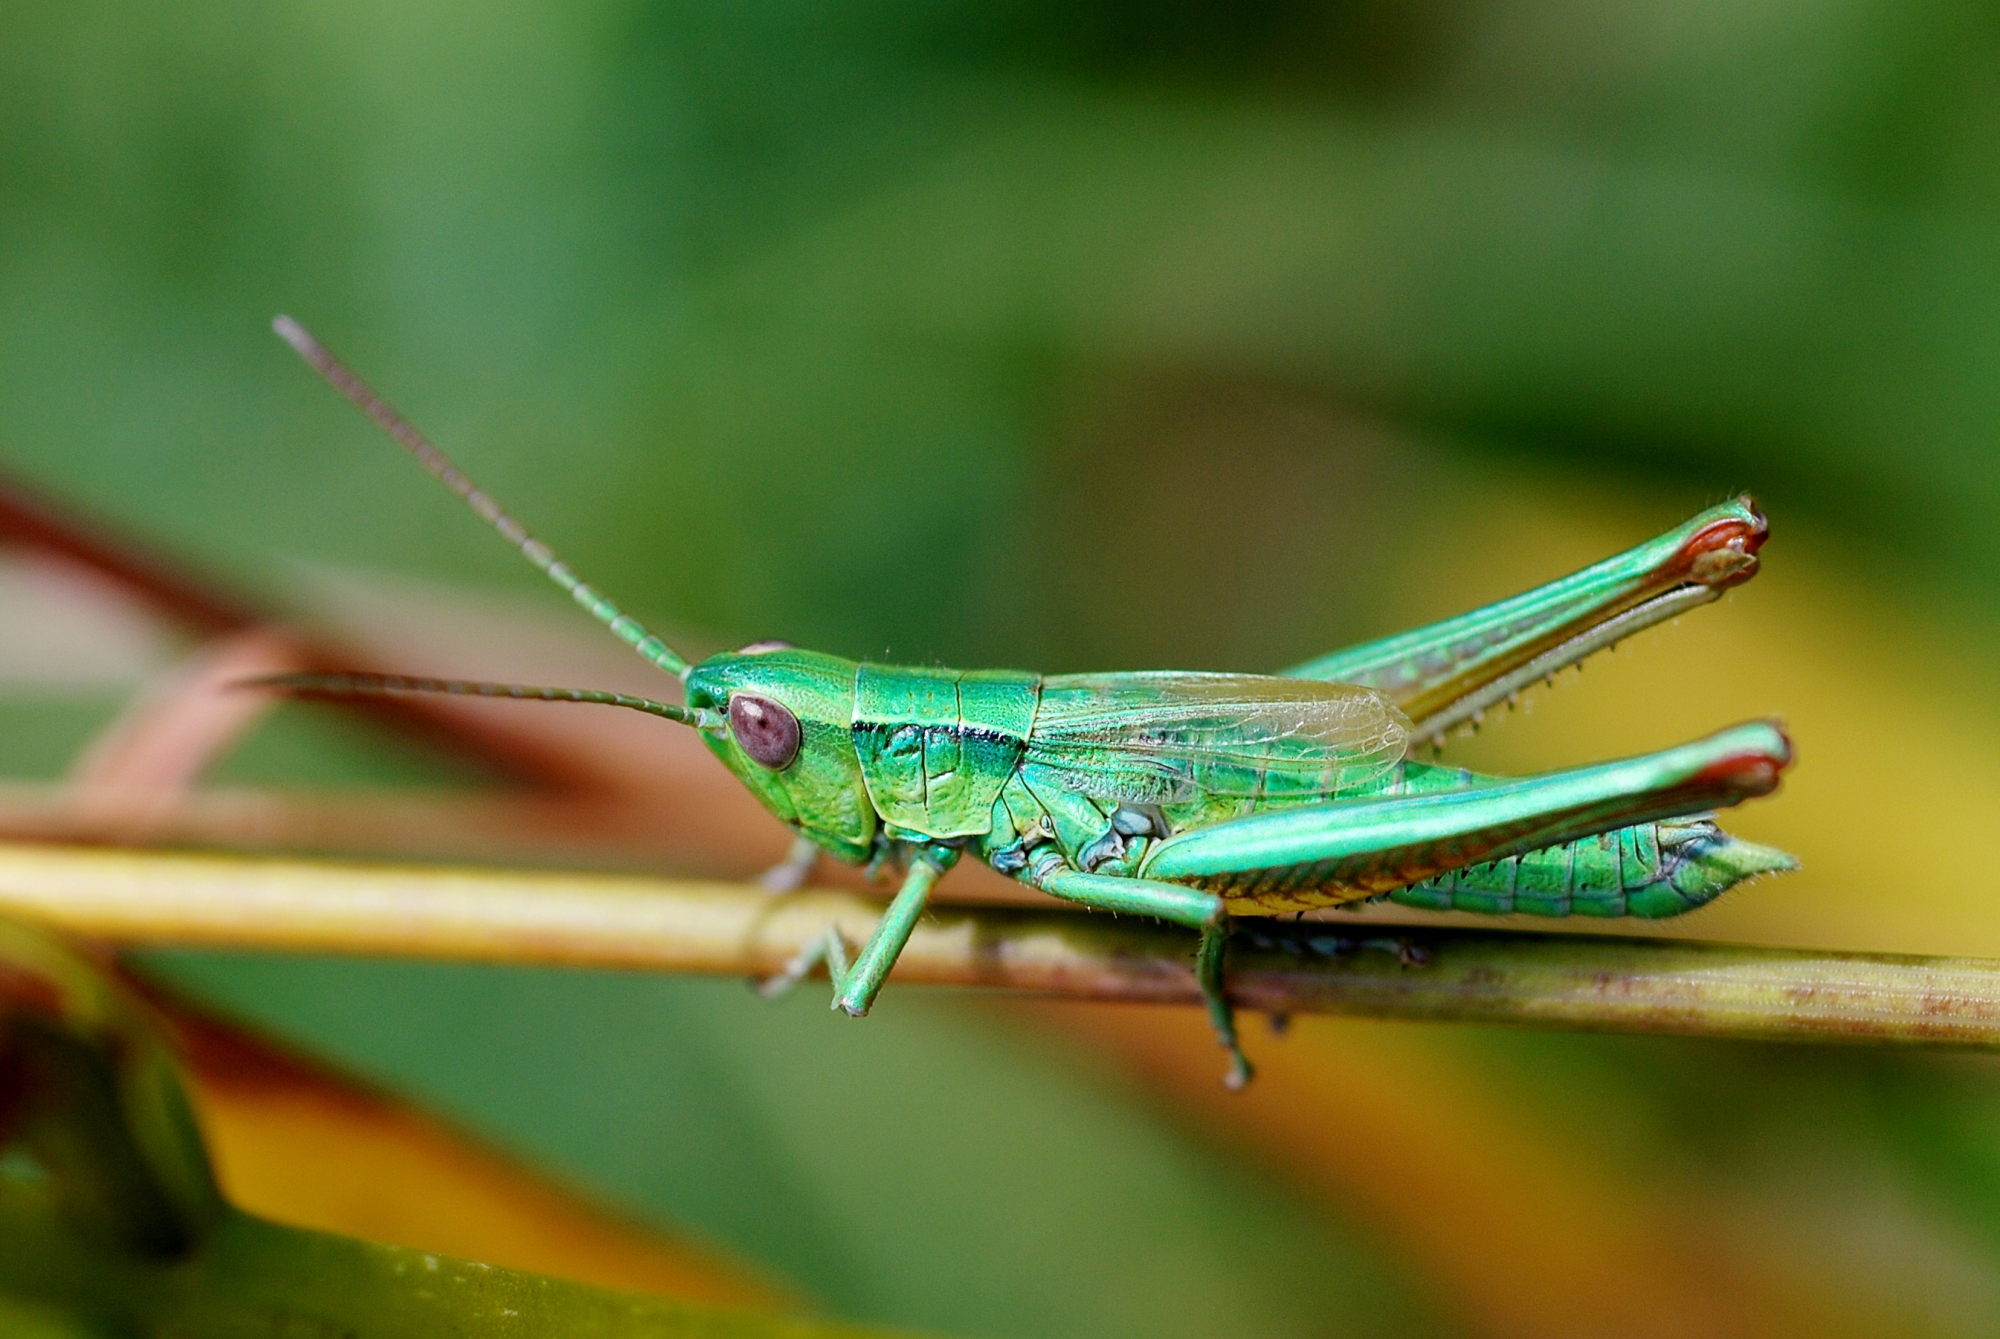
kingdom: Animalia
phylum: Arthropoda
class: Insecta
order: Orthoptera
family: Acrididae
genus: Euthystira
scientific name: Euthystira brachyptera
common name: Small gold grasshopper
